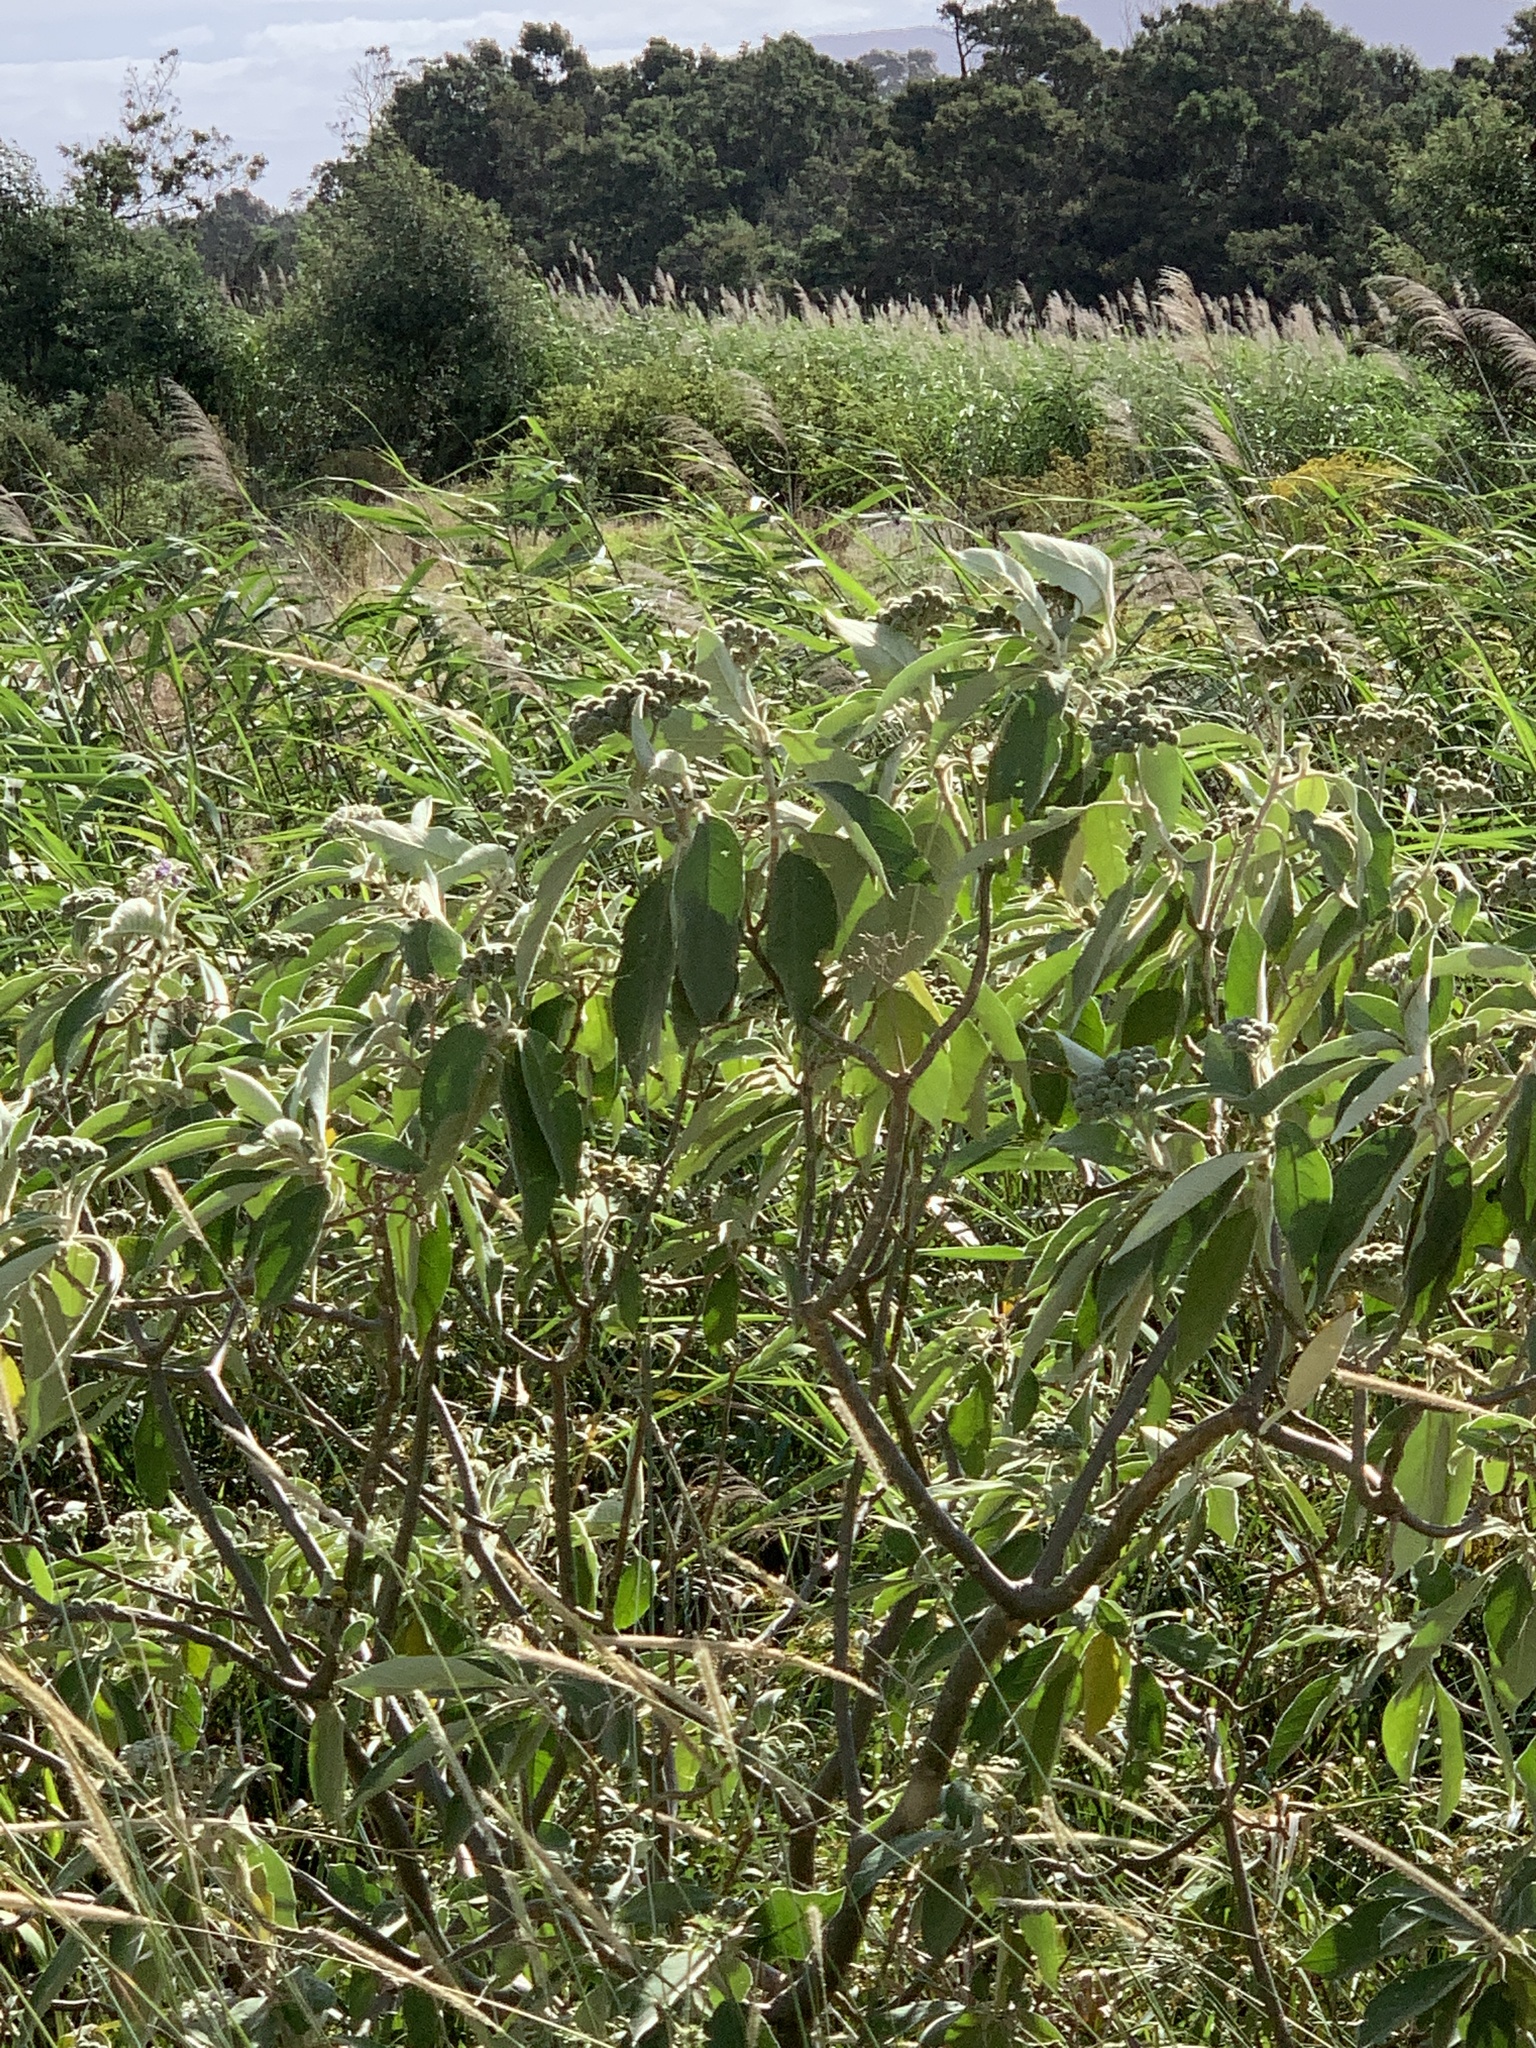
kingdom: Plantae
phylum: Tracheophyta
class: Magnoliopsida
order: Solanales
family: Solanaceae
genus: Solanum
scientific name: Solanum mauritianum
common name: Earleaf nightshade
